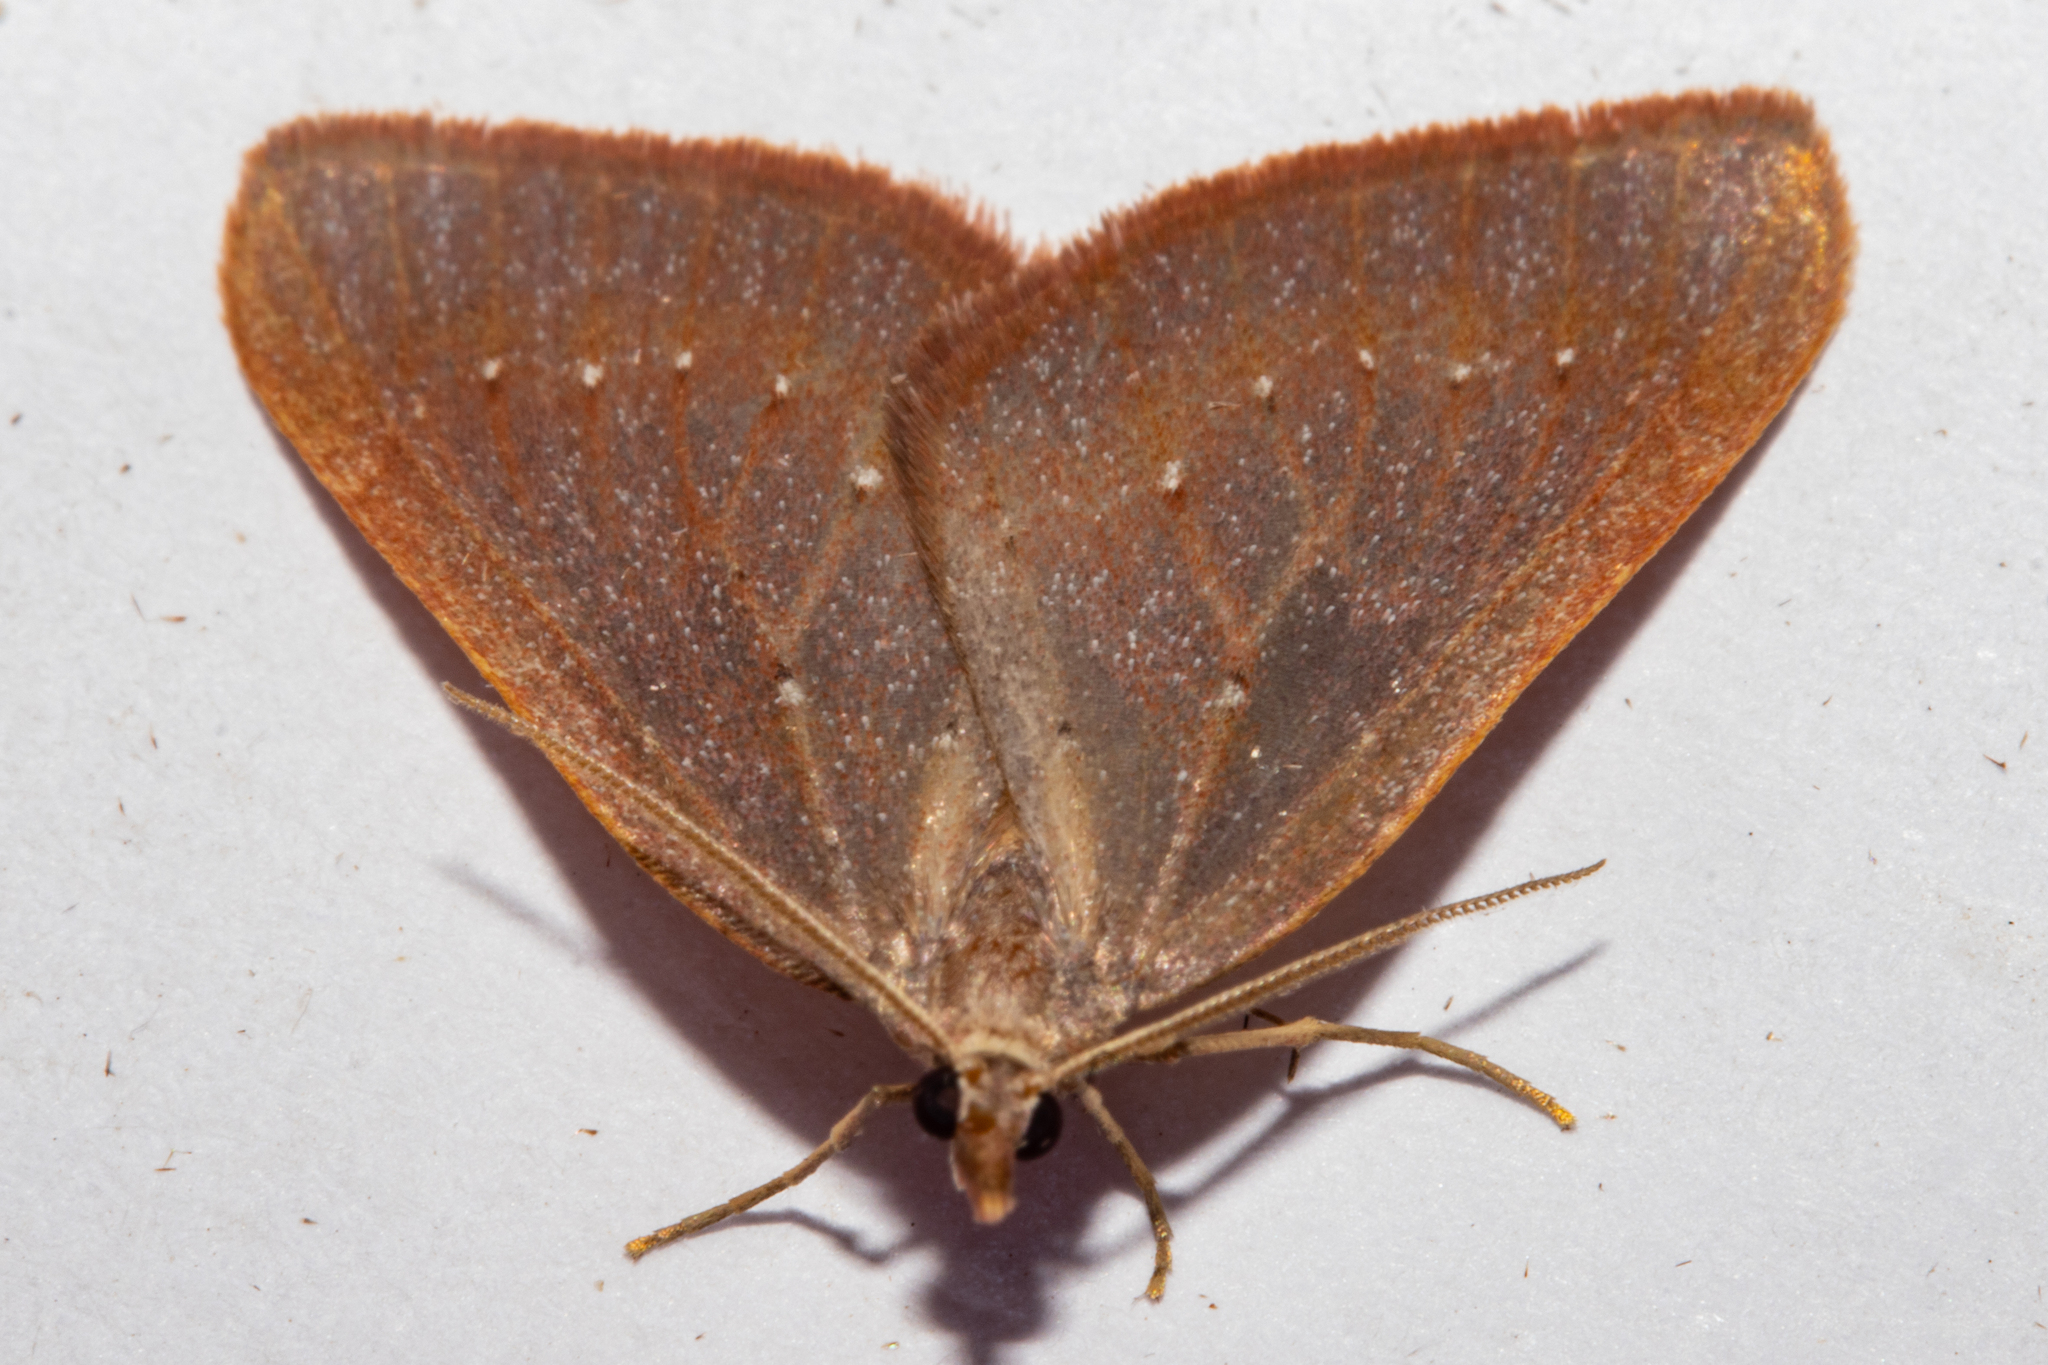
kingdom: Animalia
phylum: Arthropoda
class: Insecta
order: Lepidoptera
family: Geometridae
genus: Xanthorhoe
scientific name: Xanthorhoe occulta
